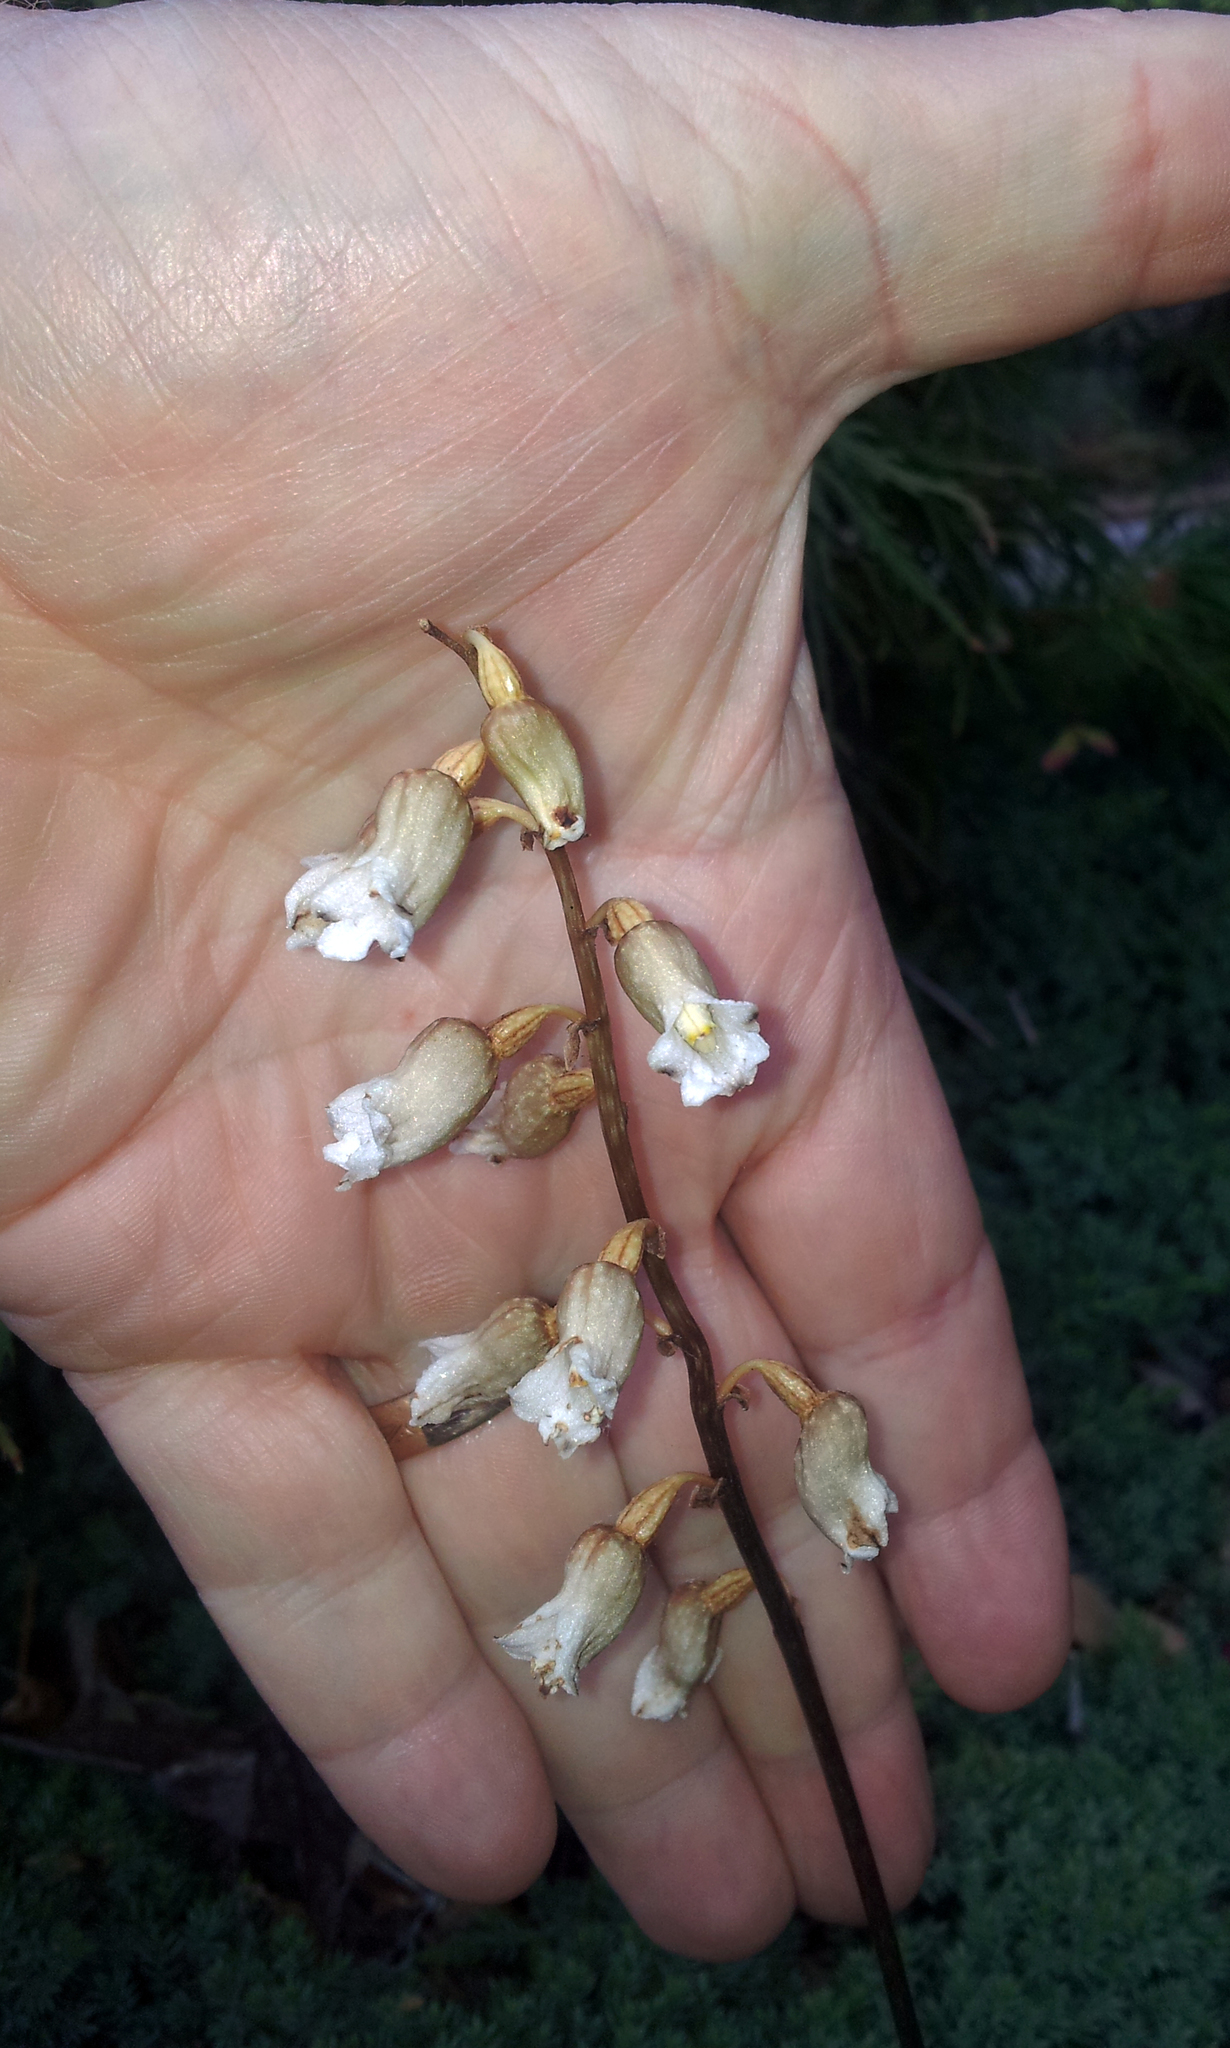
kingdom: Plantae
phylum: Tracheophyta
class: Liliopsida
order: Asparagales
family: Orchidaceae
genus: Gastrodia
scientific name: Gastrodia sesamoides
